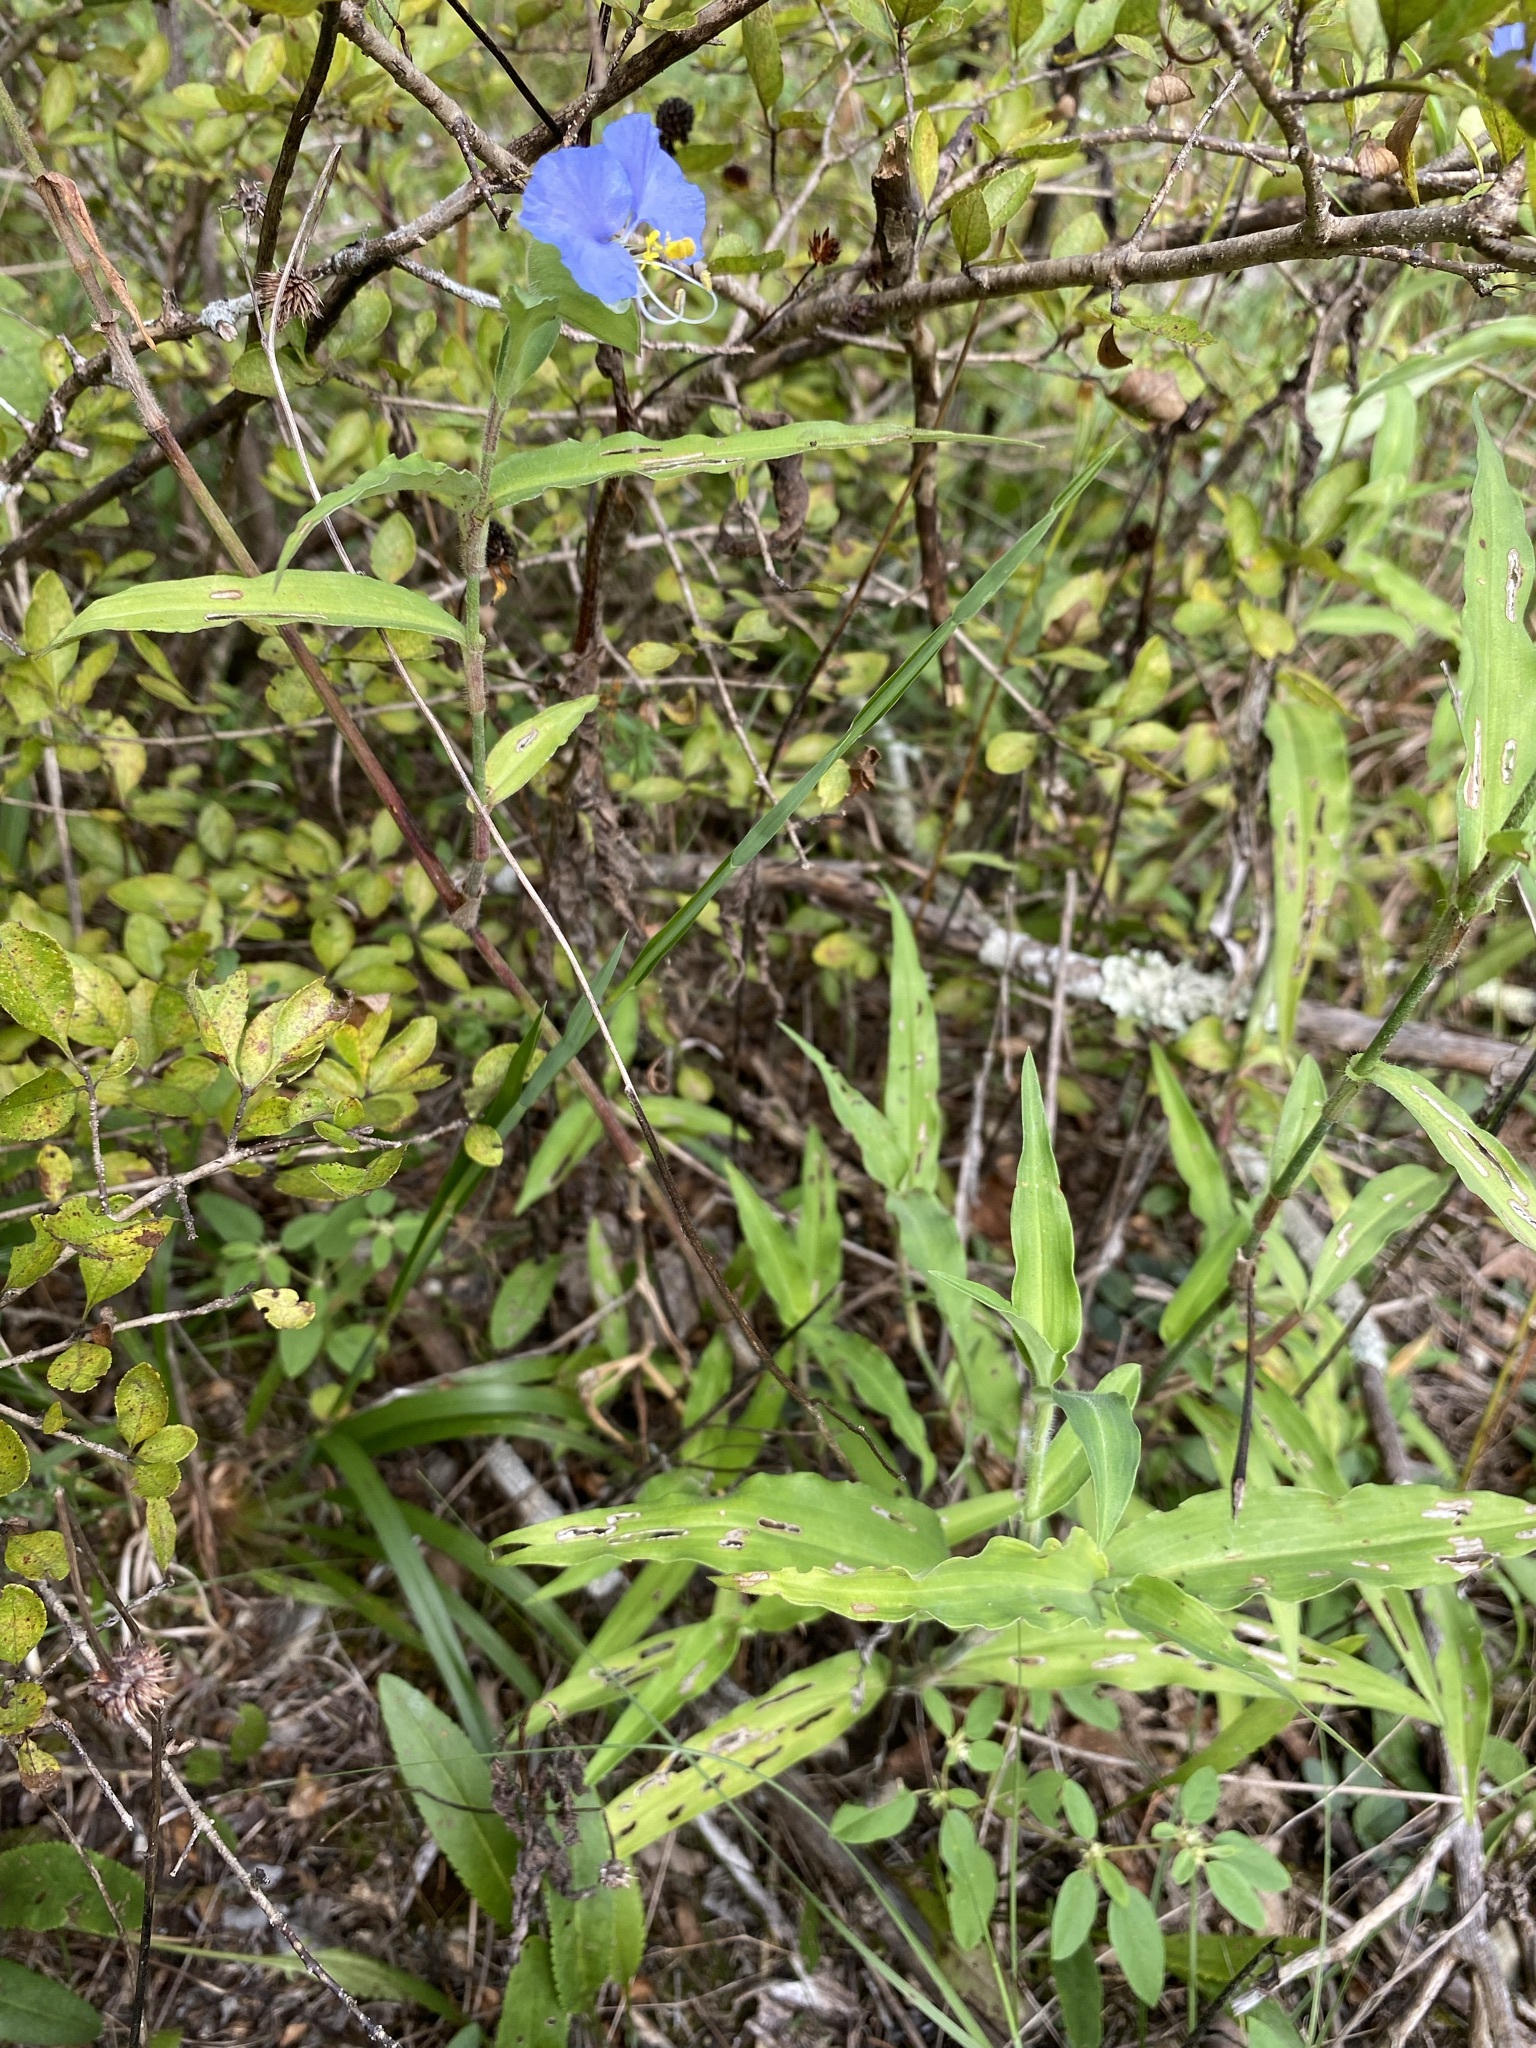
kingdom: Plantae
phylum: Tracheophyta
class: Liliopsida
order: Commelinales
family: Commelinaceae
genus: Commelina
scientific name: Commelina erecta
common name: Blousel blommetjie
